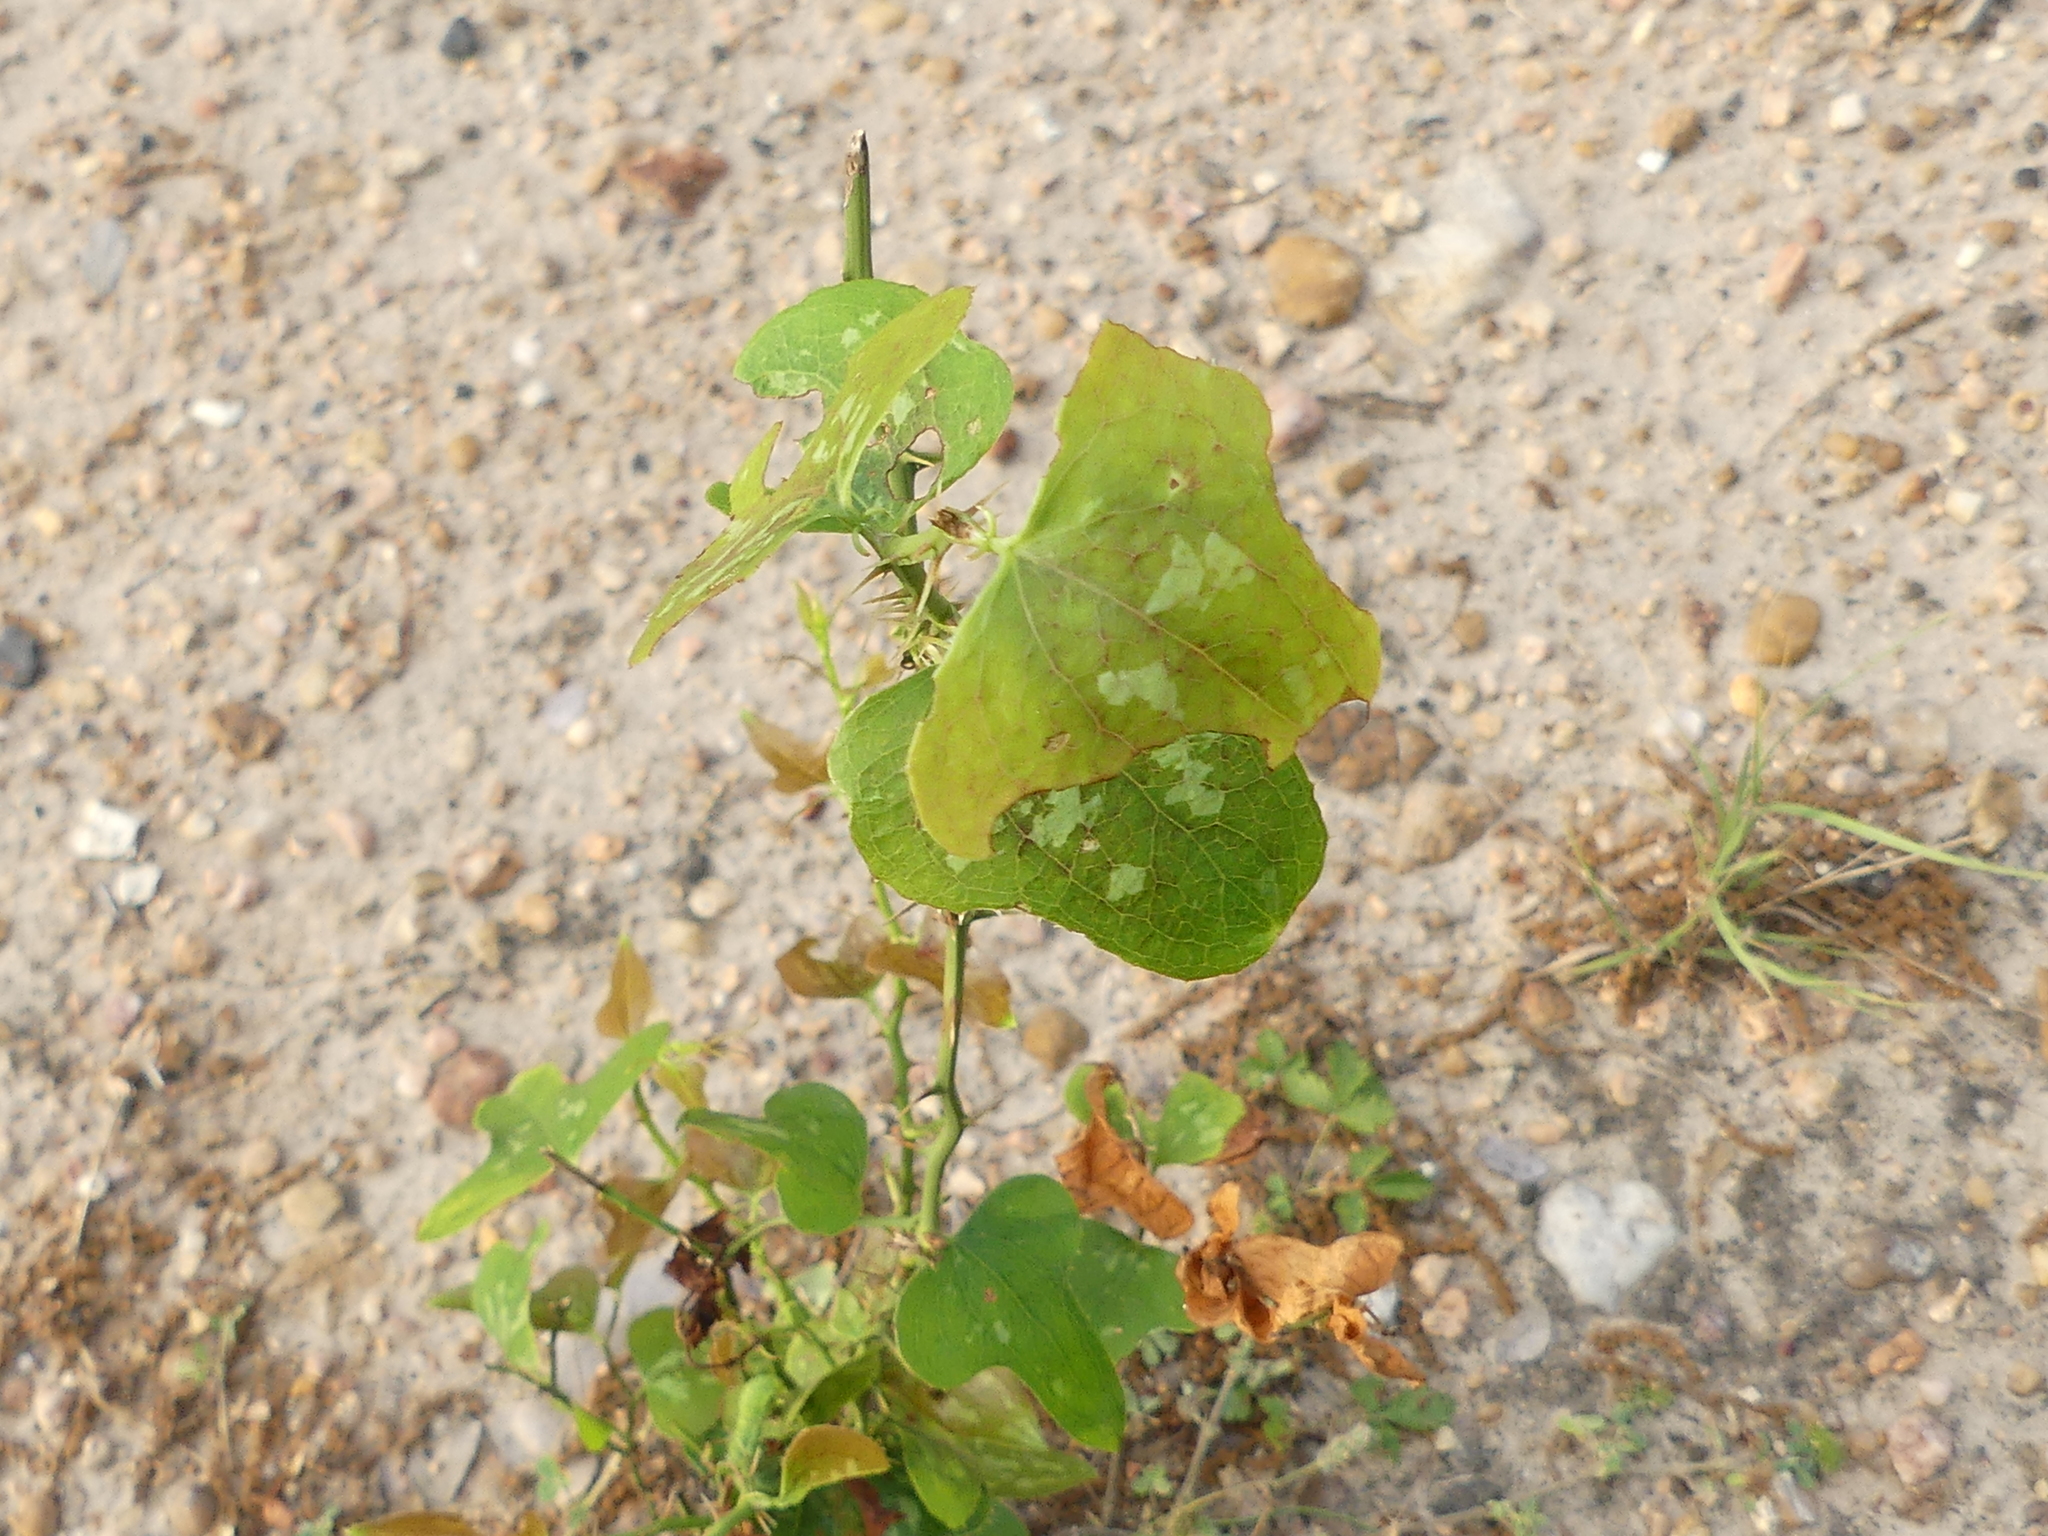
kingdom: Plantae
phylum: Tracheophyta
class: Liliopsida
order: Liliales
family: Smilacaceae
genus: Smilax
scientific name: Smilax bona-nox
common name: Catbrier
